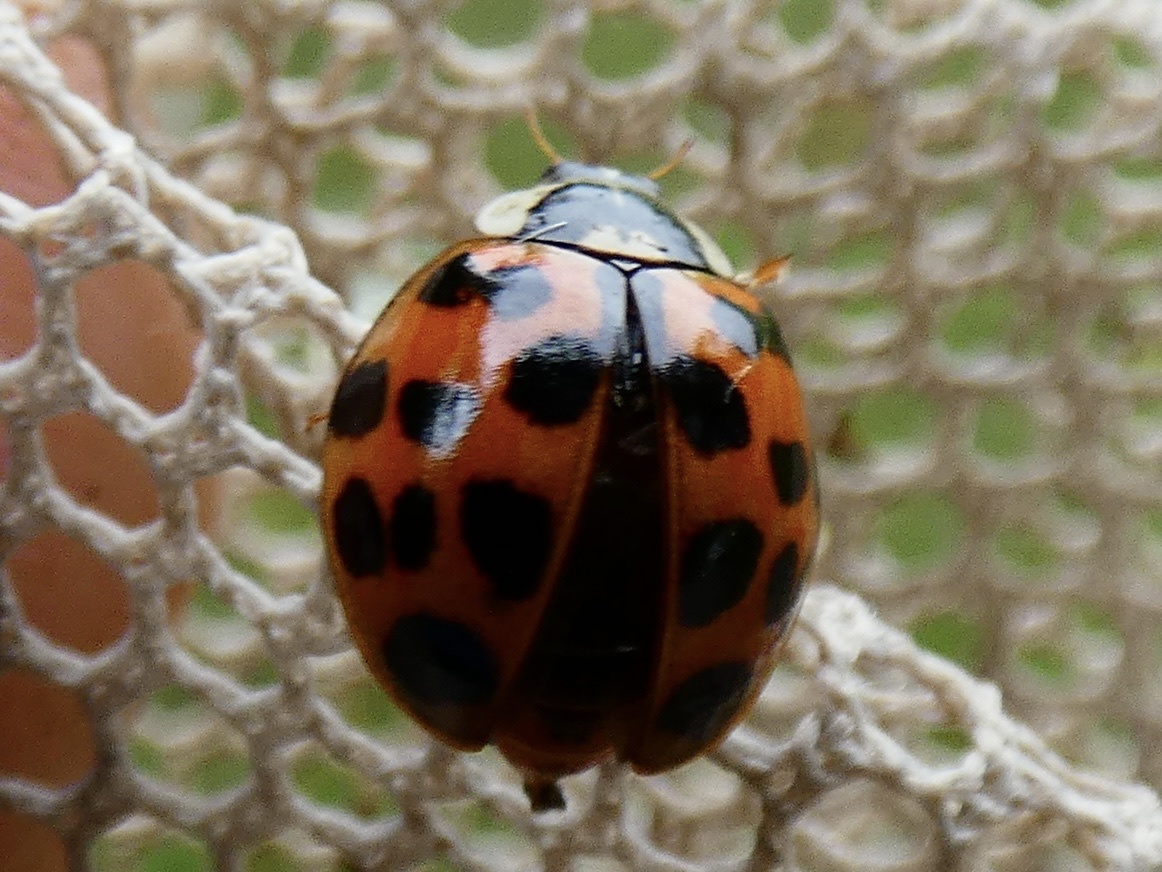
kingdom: Animalia
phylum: Arthropoda
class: Insecta
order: Coleoptera
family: Coccinellidae
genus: Harmonia
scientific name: Harmonia axyridis
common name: Harlequin ladybird
